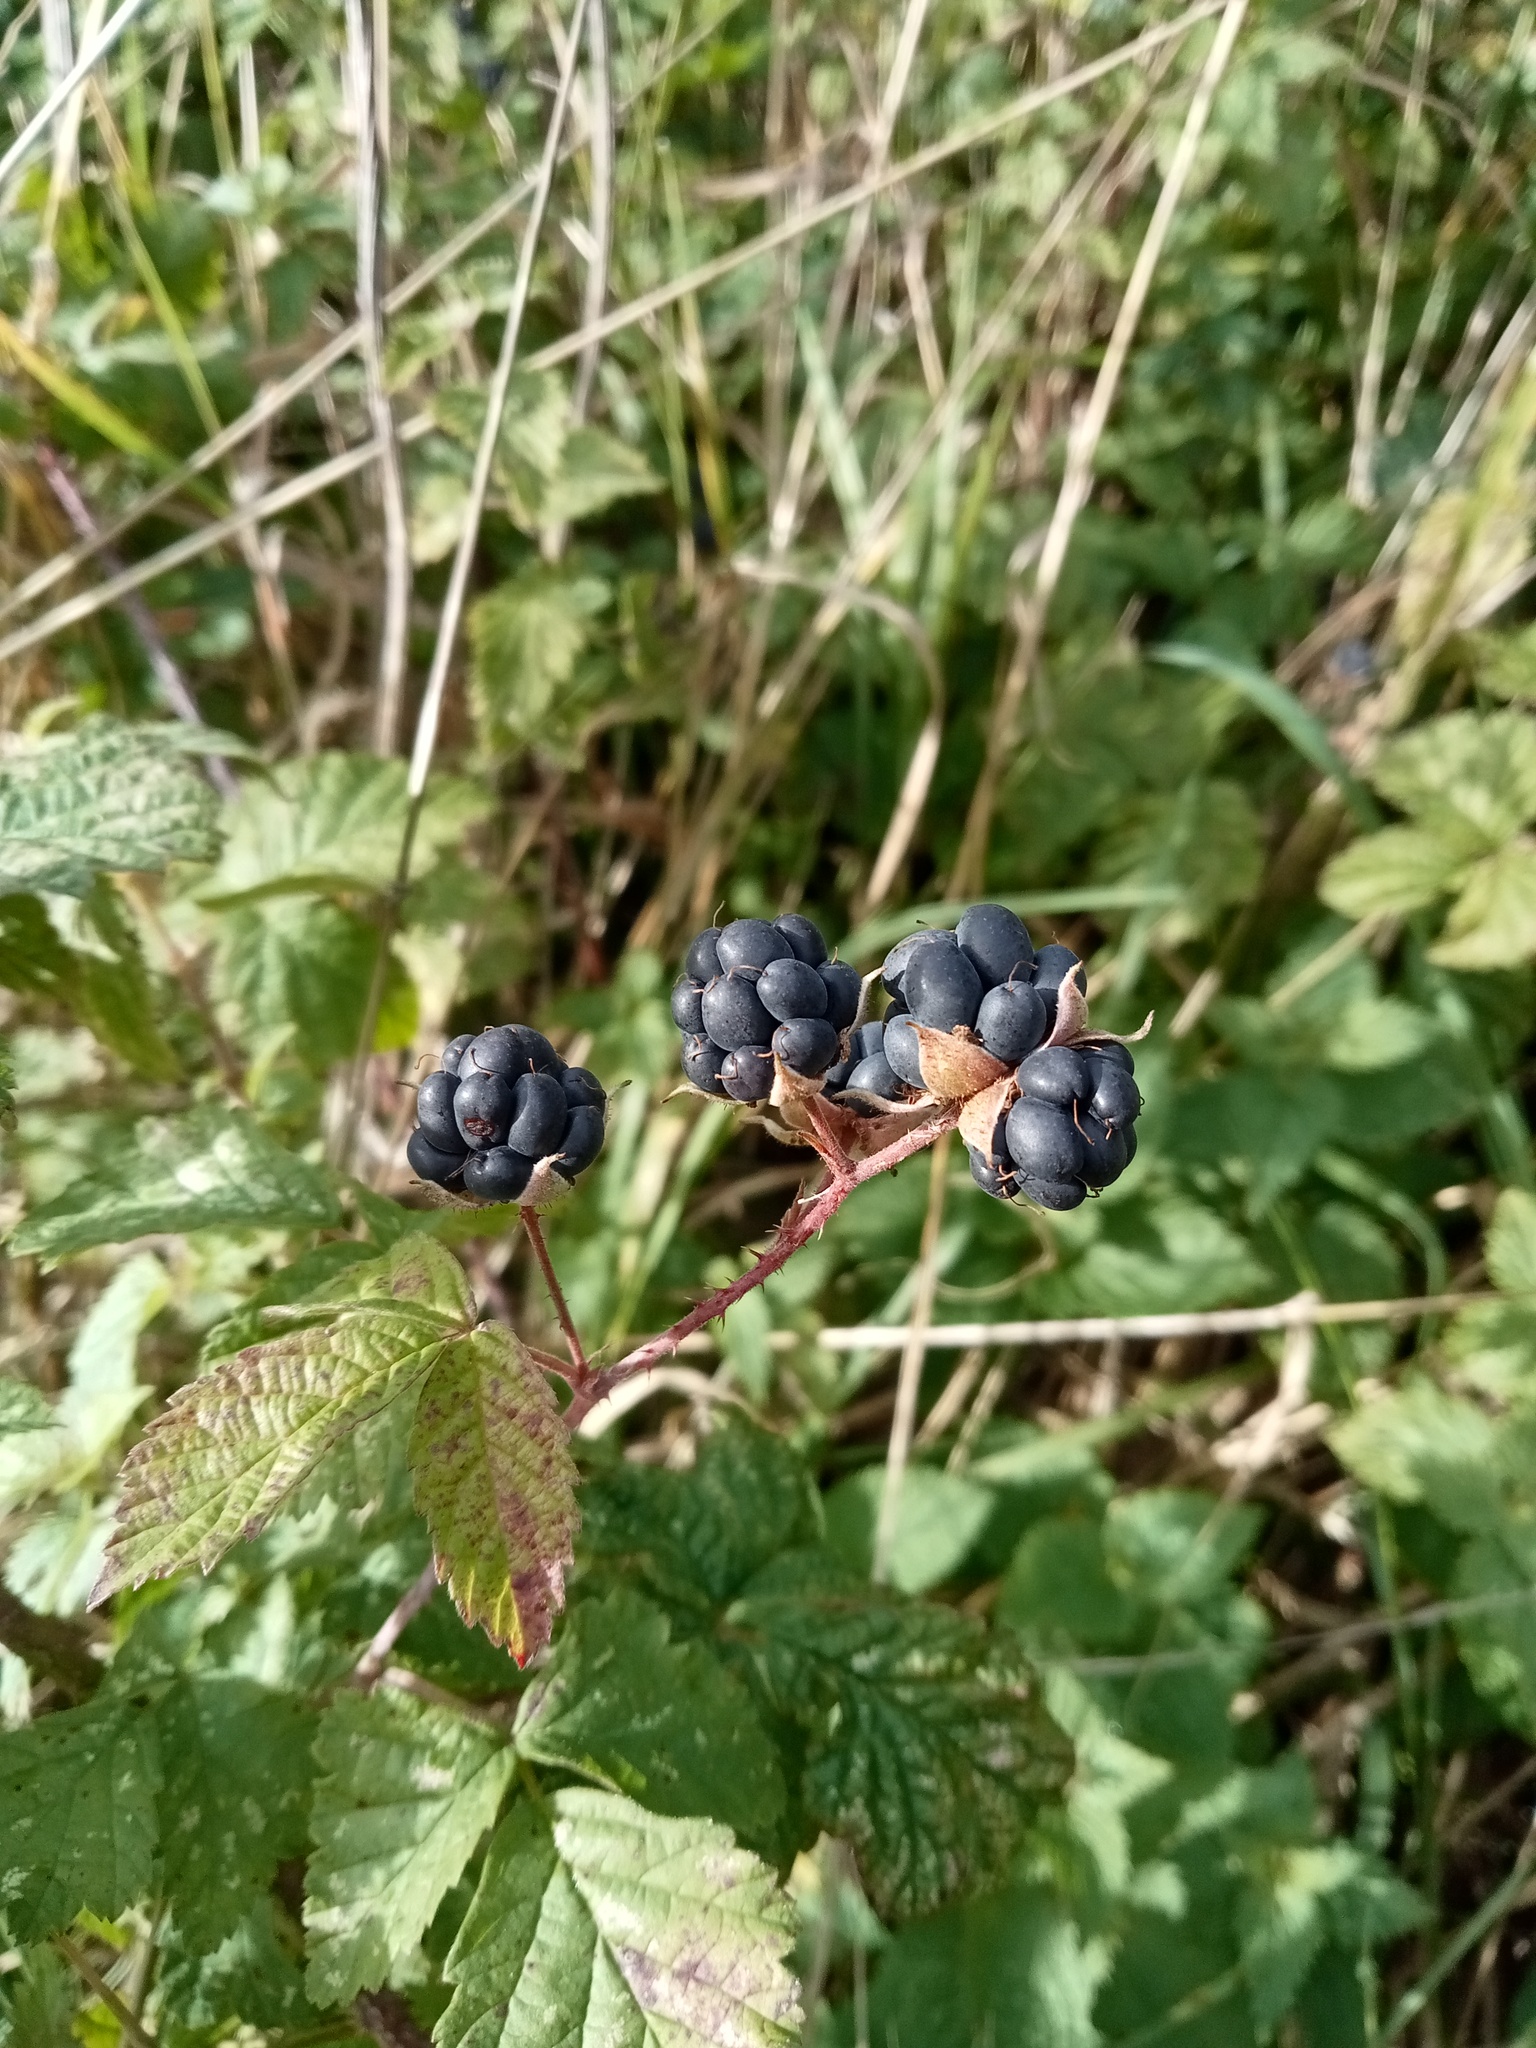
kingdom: Plantae
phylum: Tracheophyta
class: Magnoliopsida
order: Rosales
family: Rosaceae
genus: Rubus
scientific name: Rubus caesius
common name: Dewberry
